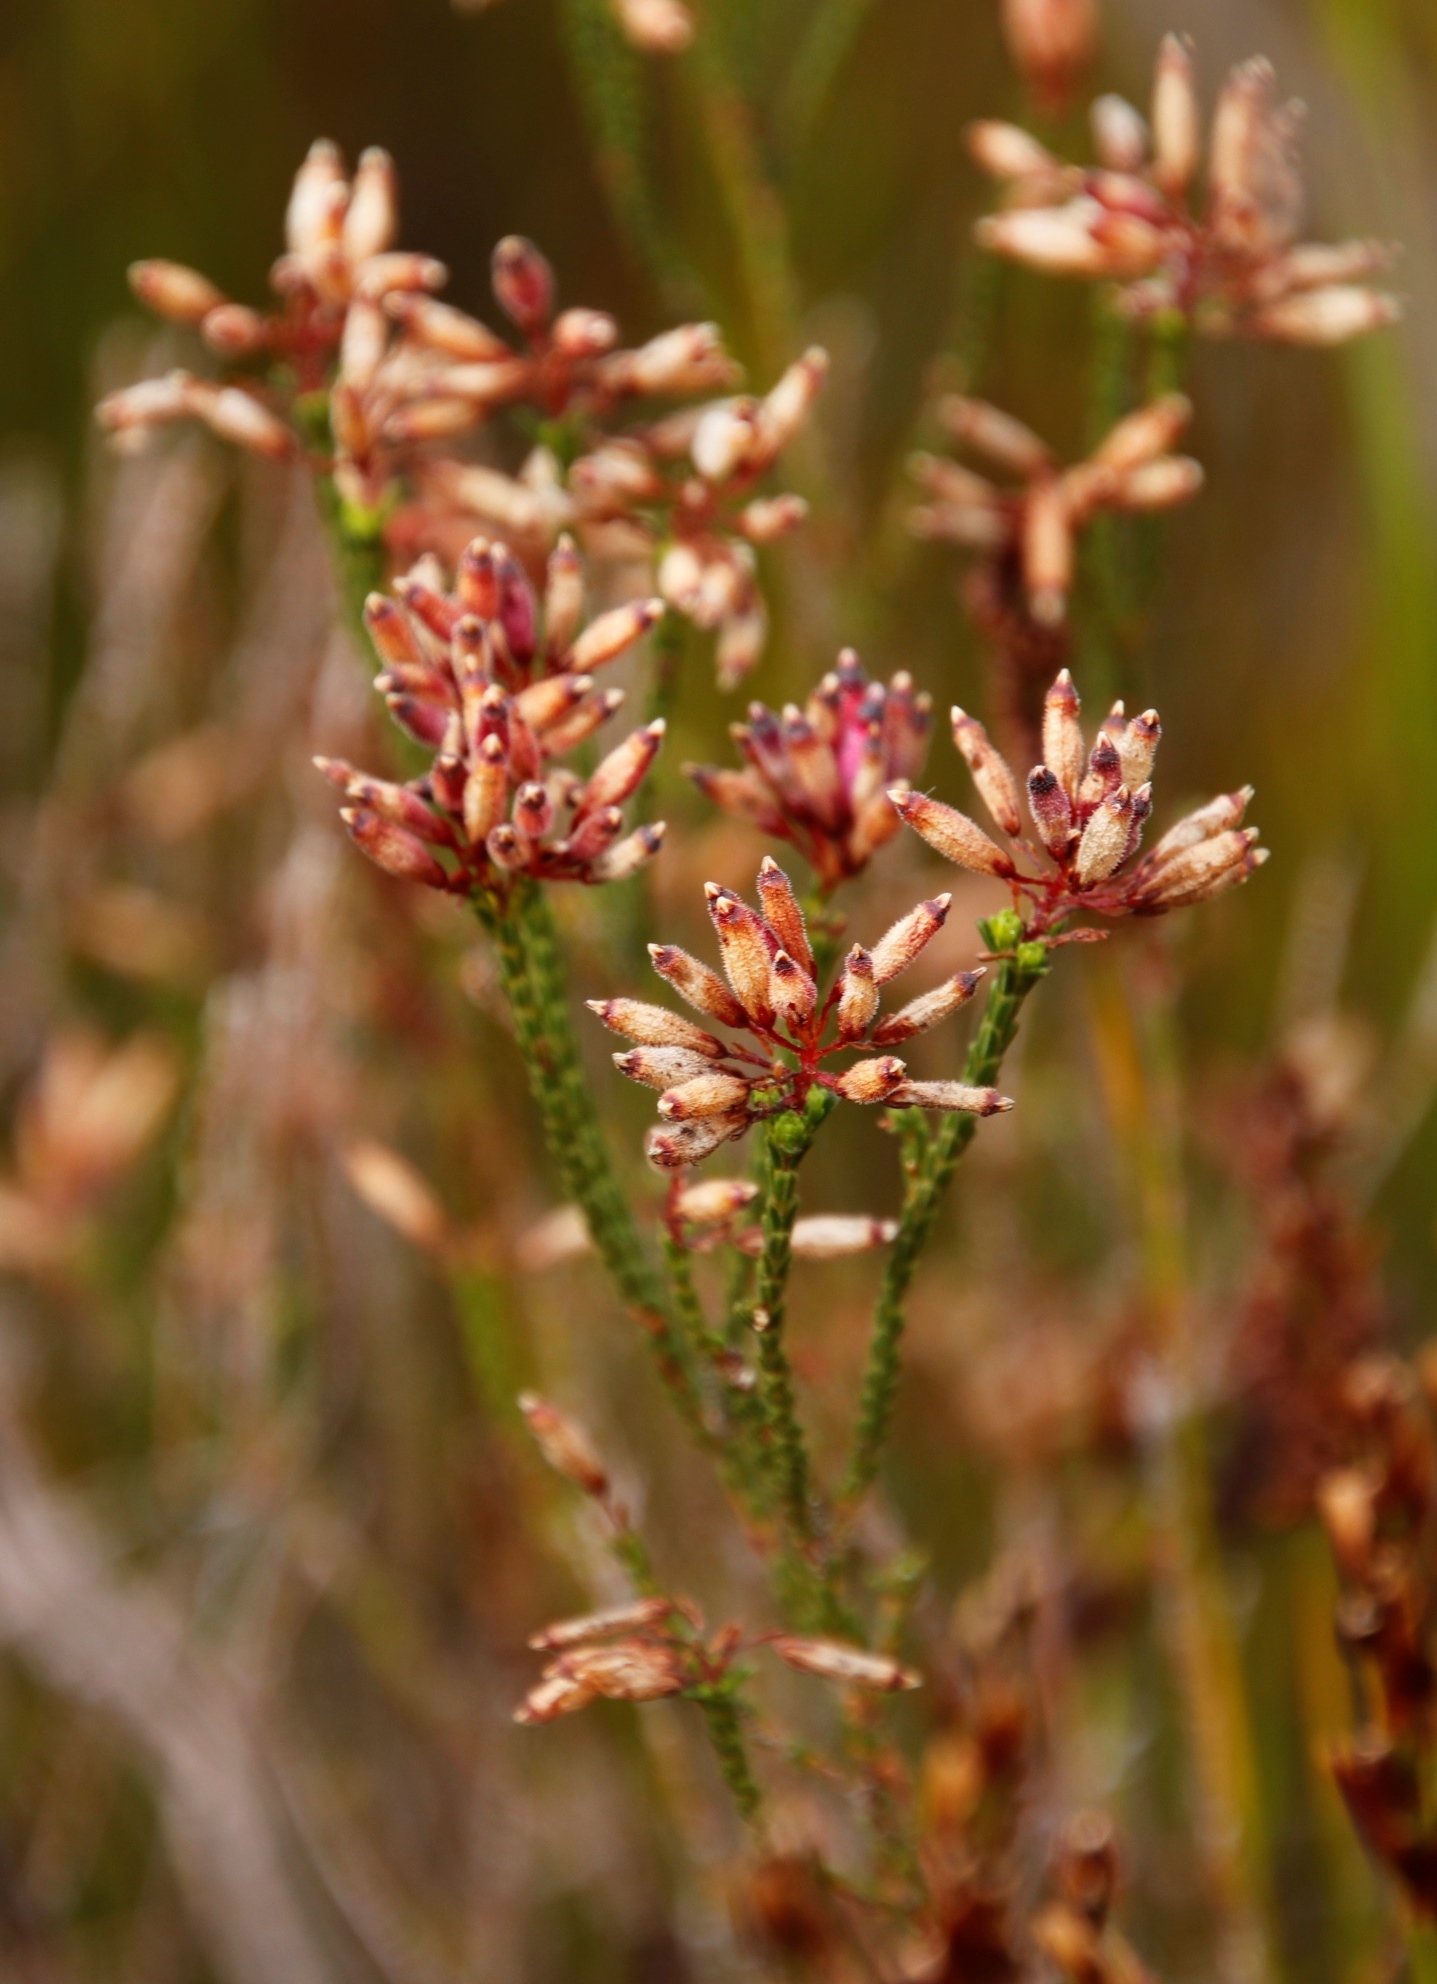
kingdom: Plantae
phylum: Tracheophyta
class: Magnoliopsida
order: Ericales
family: Ericaceae
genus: Erica
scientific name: Erica cristata
